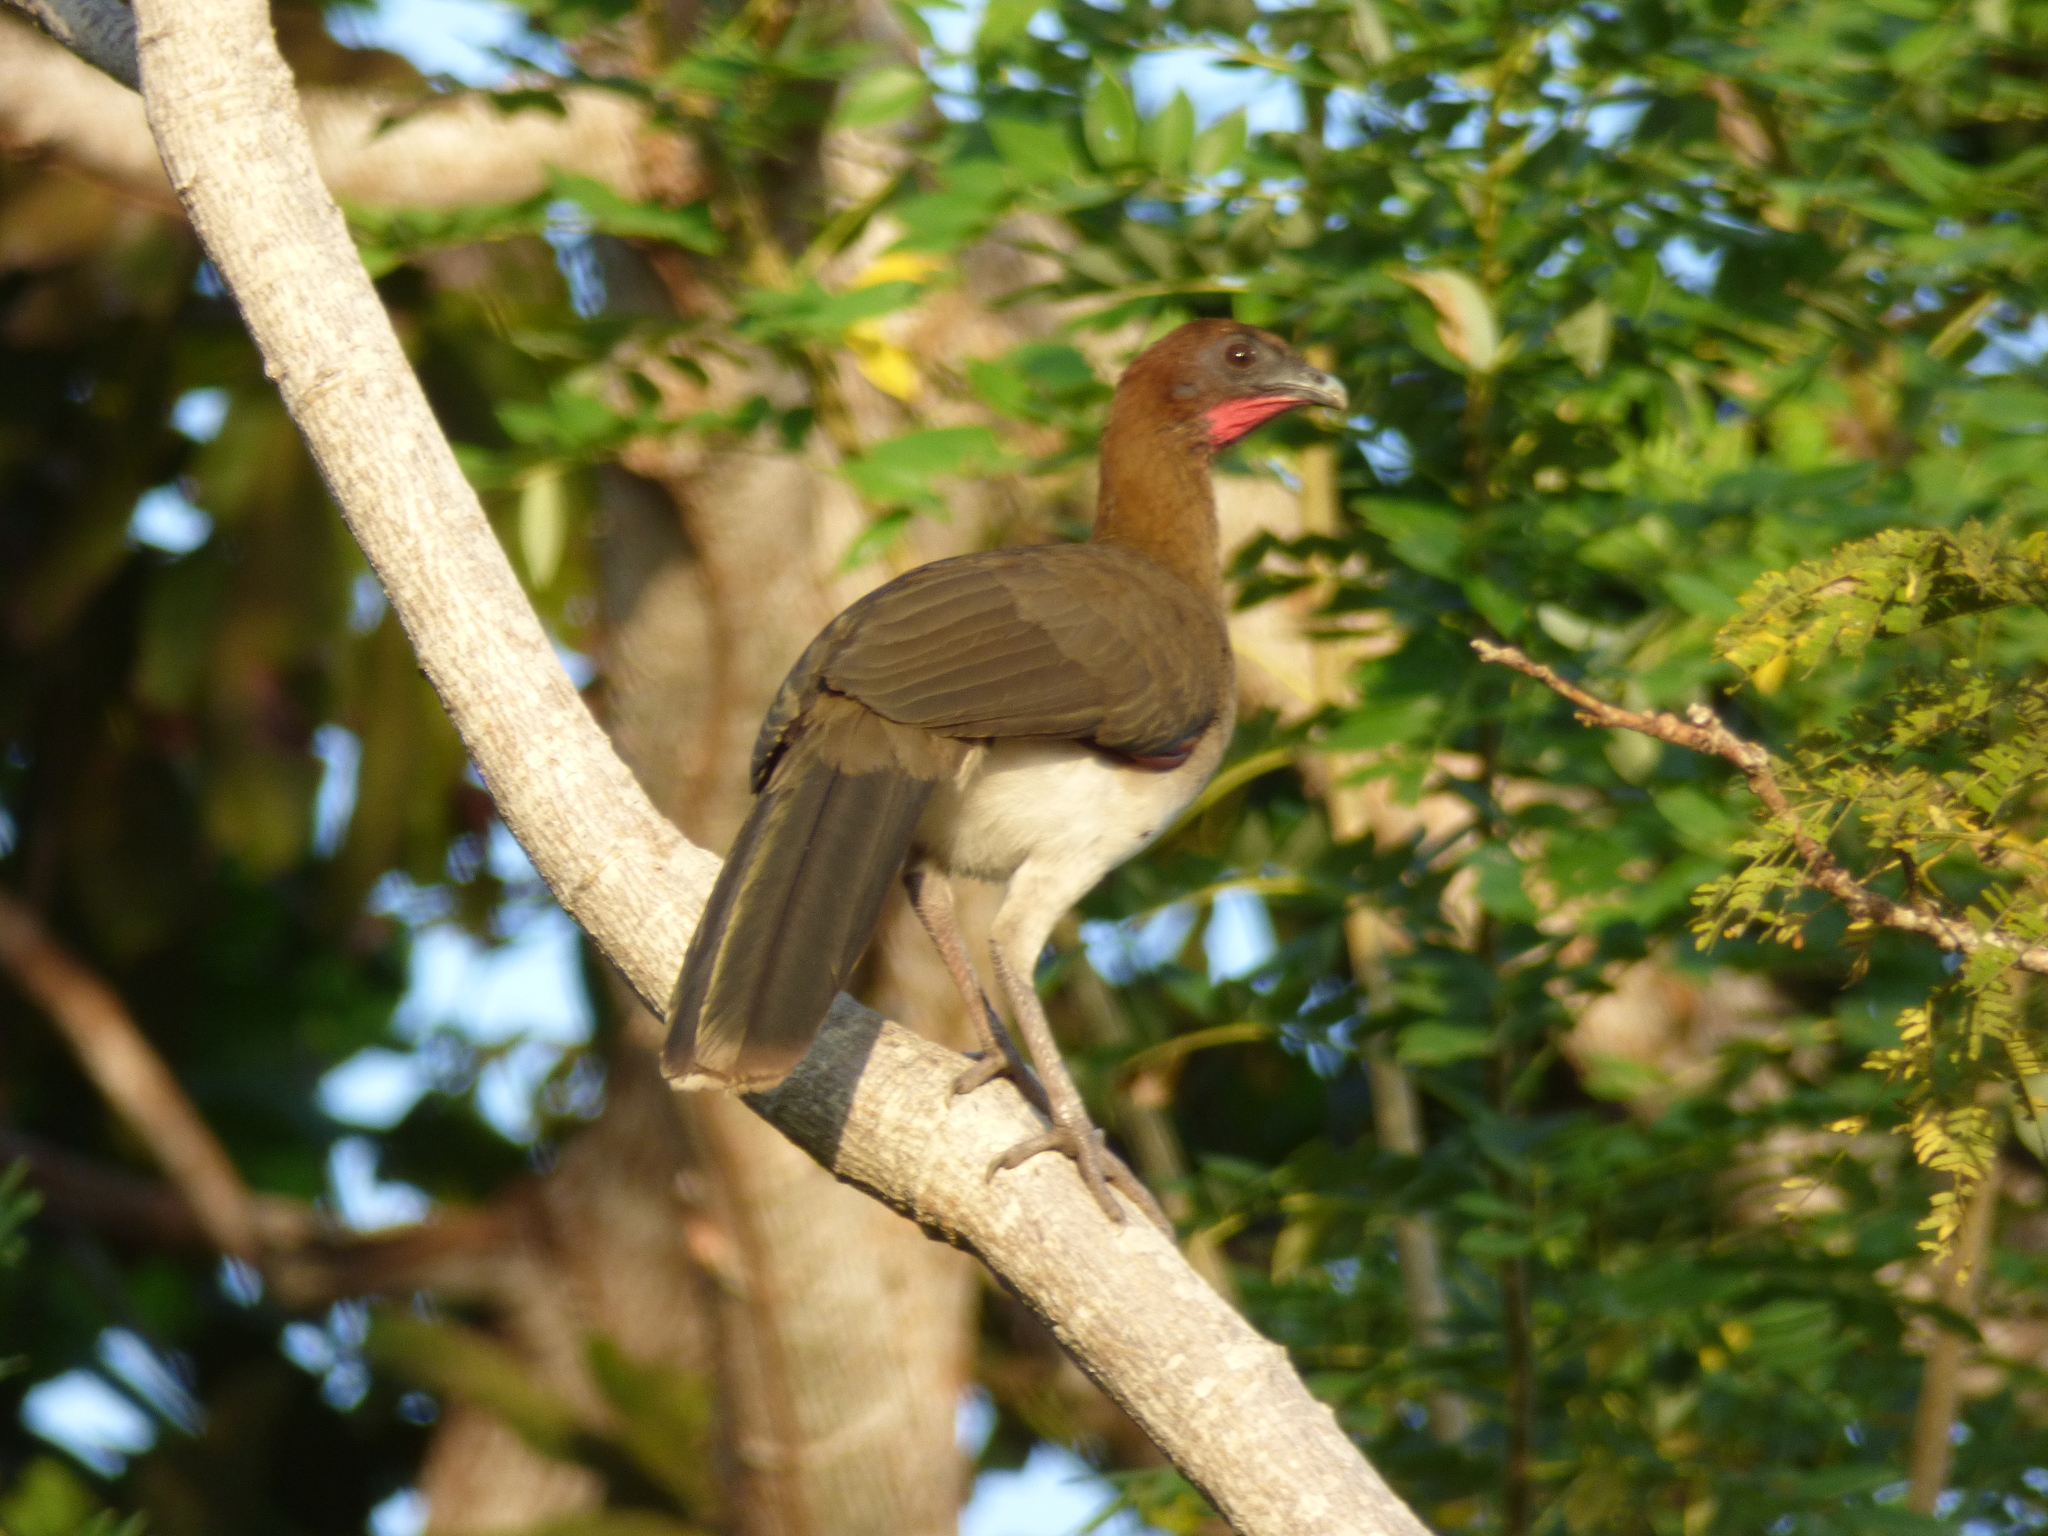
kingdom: Animalia
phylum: Chordata
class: Aves
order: Galliformes
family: Cracidae
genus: Ortalis
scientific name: Ortalis garrula
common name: Chestnut-winged chachalaca
